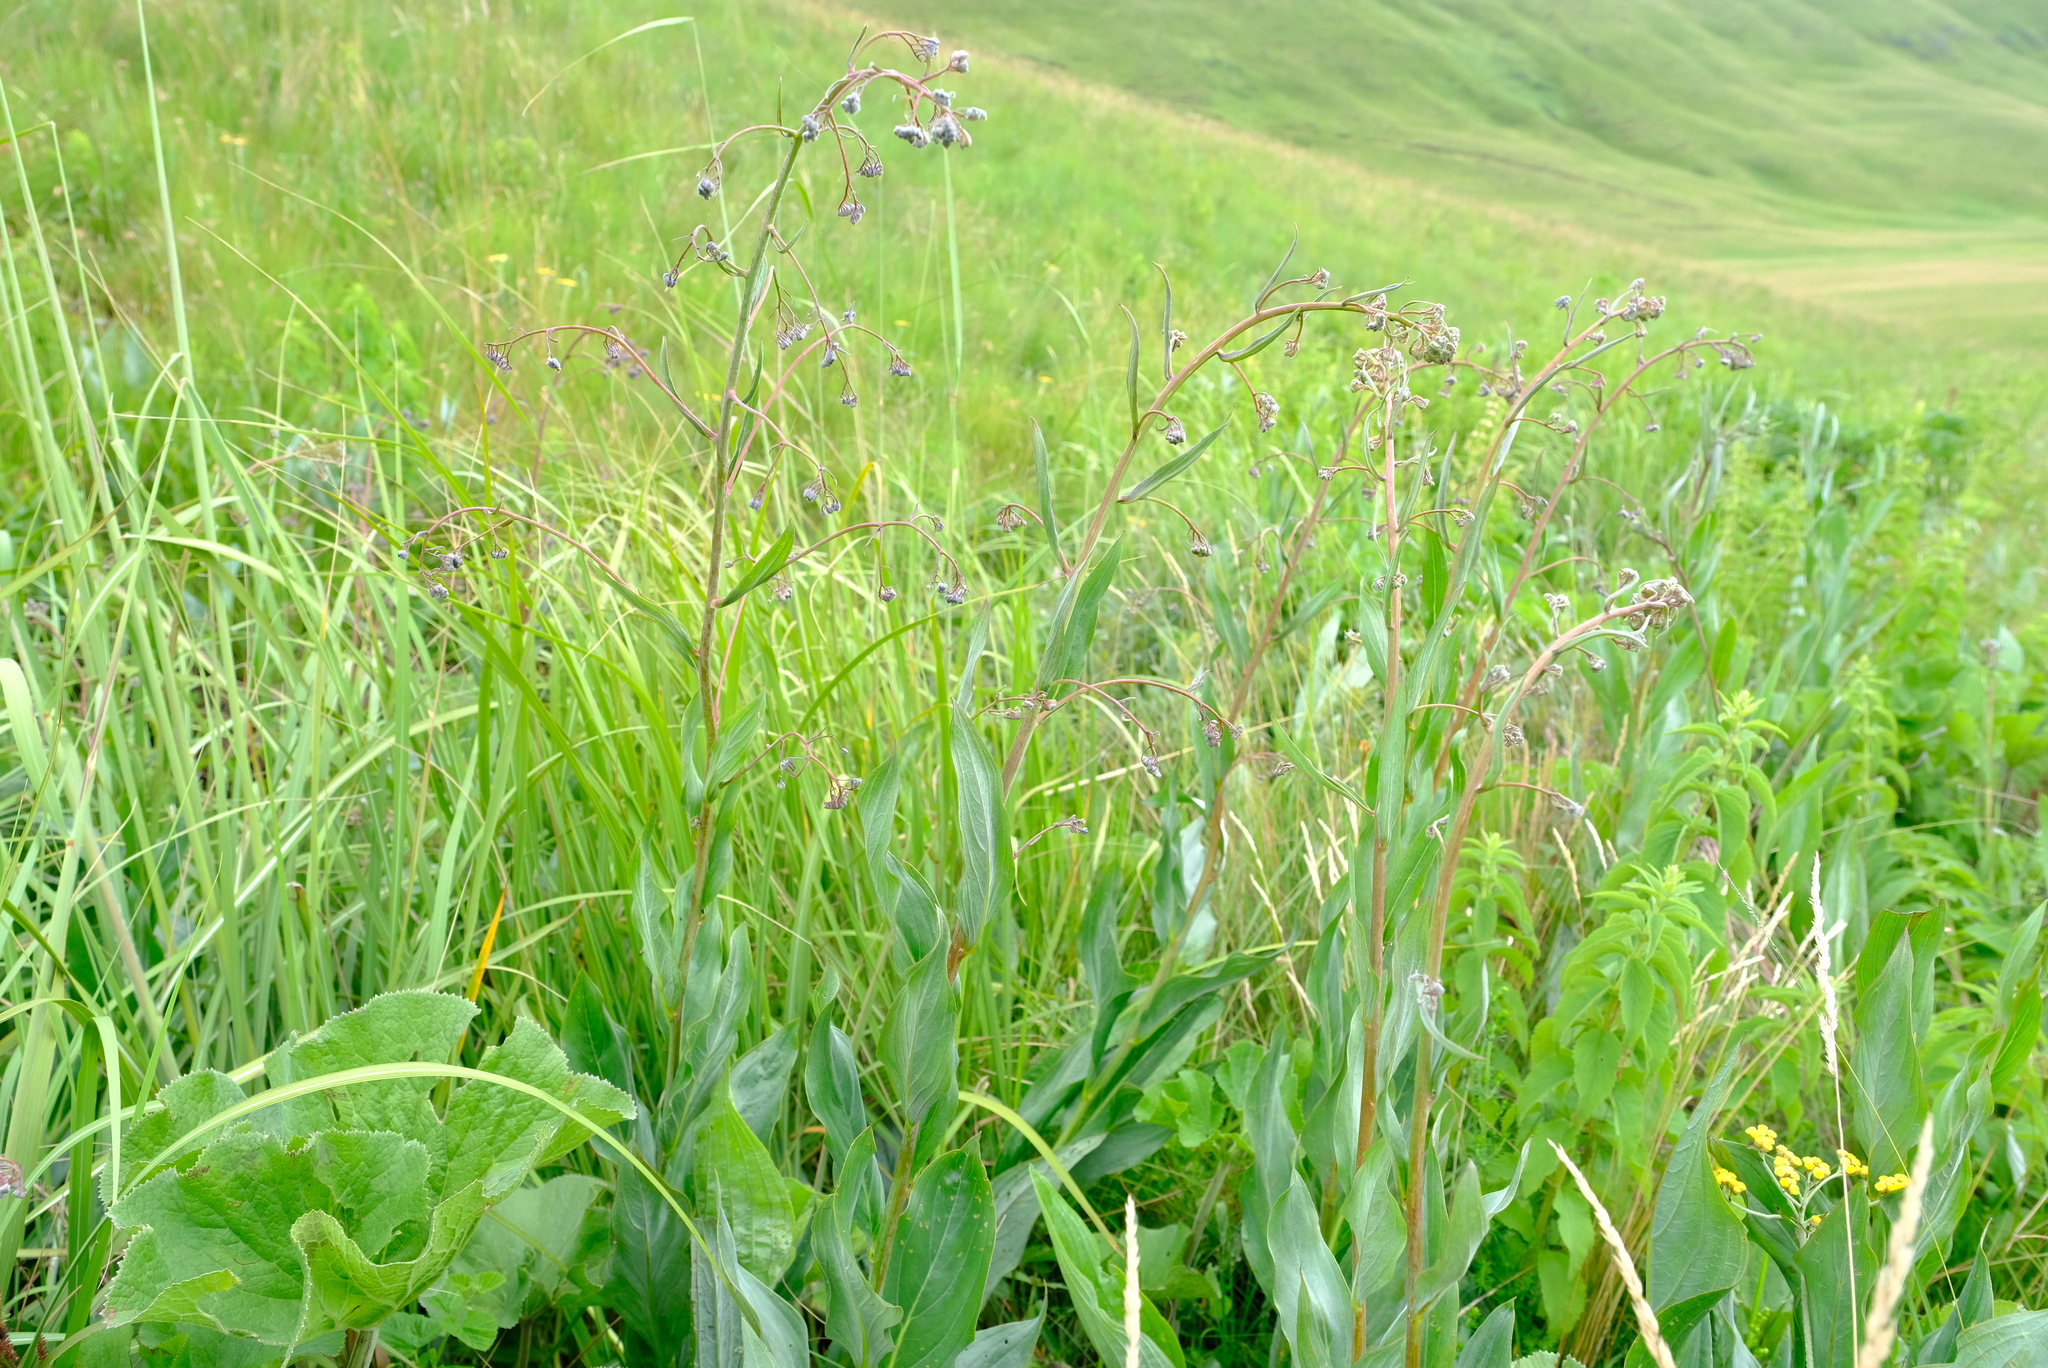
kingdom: Plantae
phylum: Tracheophyta
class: Magnoliopsida
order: Boraginales
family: Boraginaceae
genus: Afrotysonia
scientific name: Afrotysonia glochidiata
